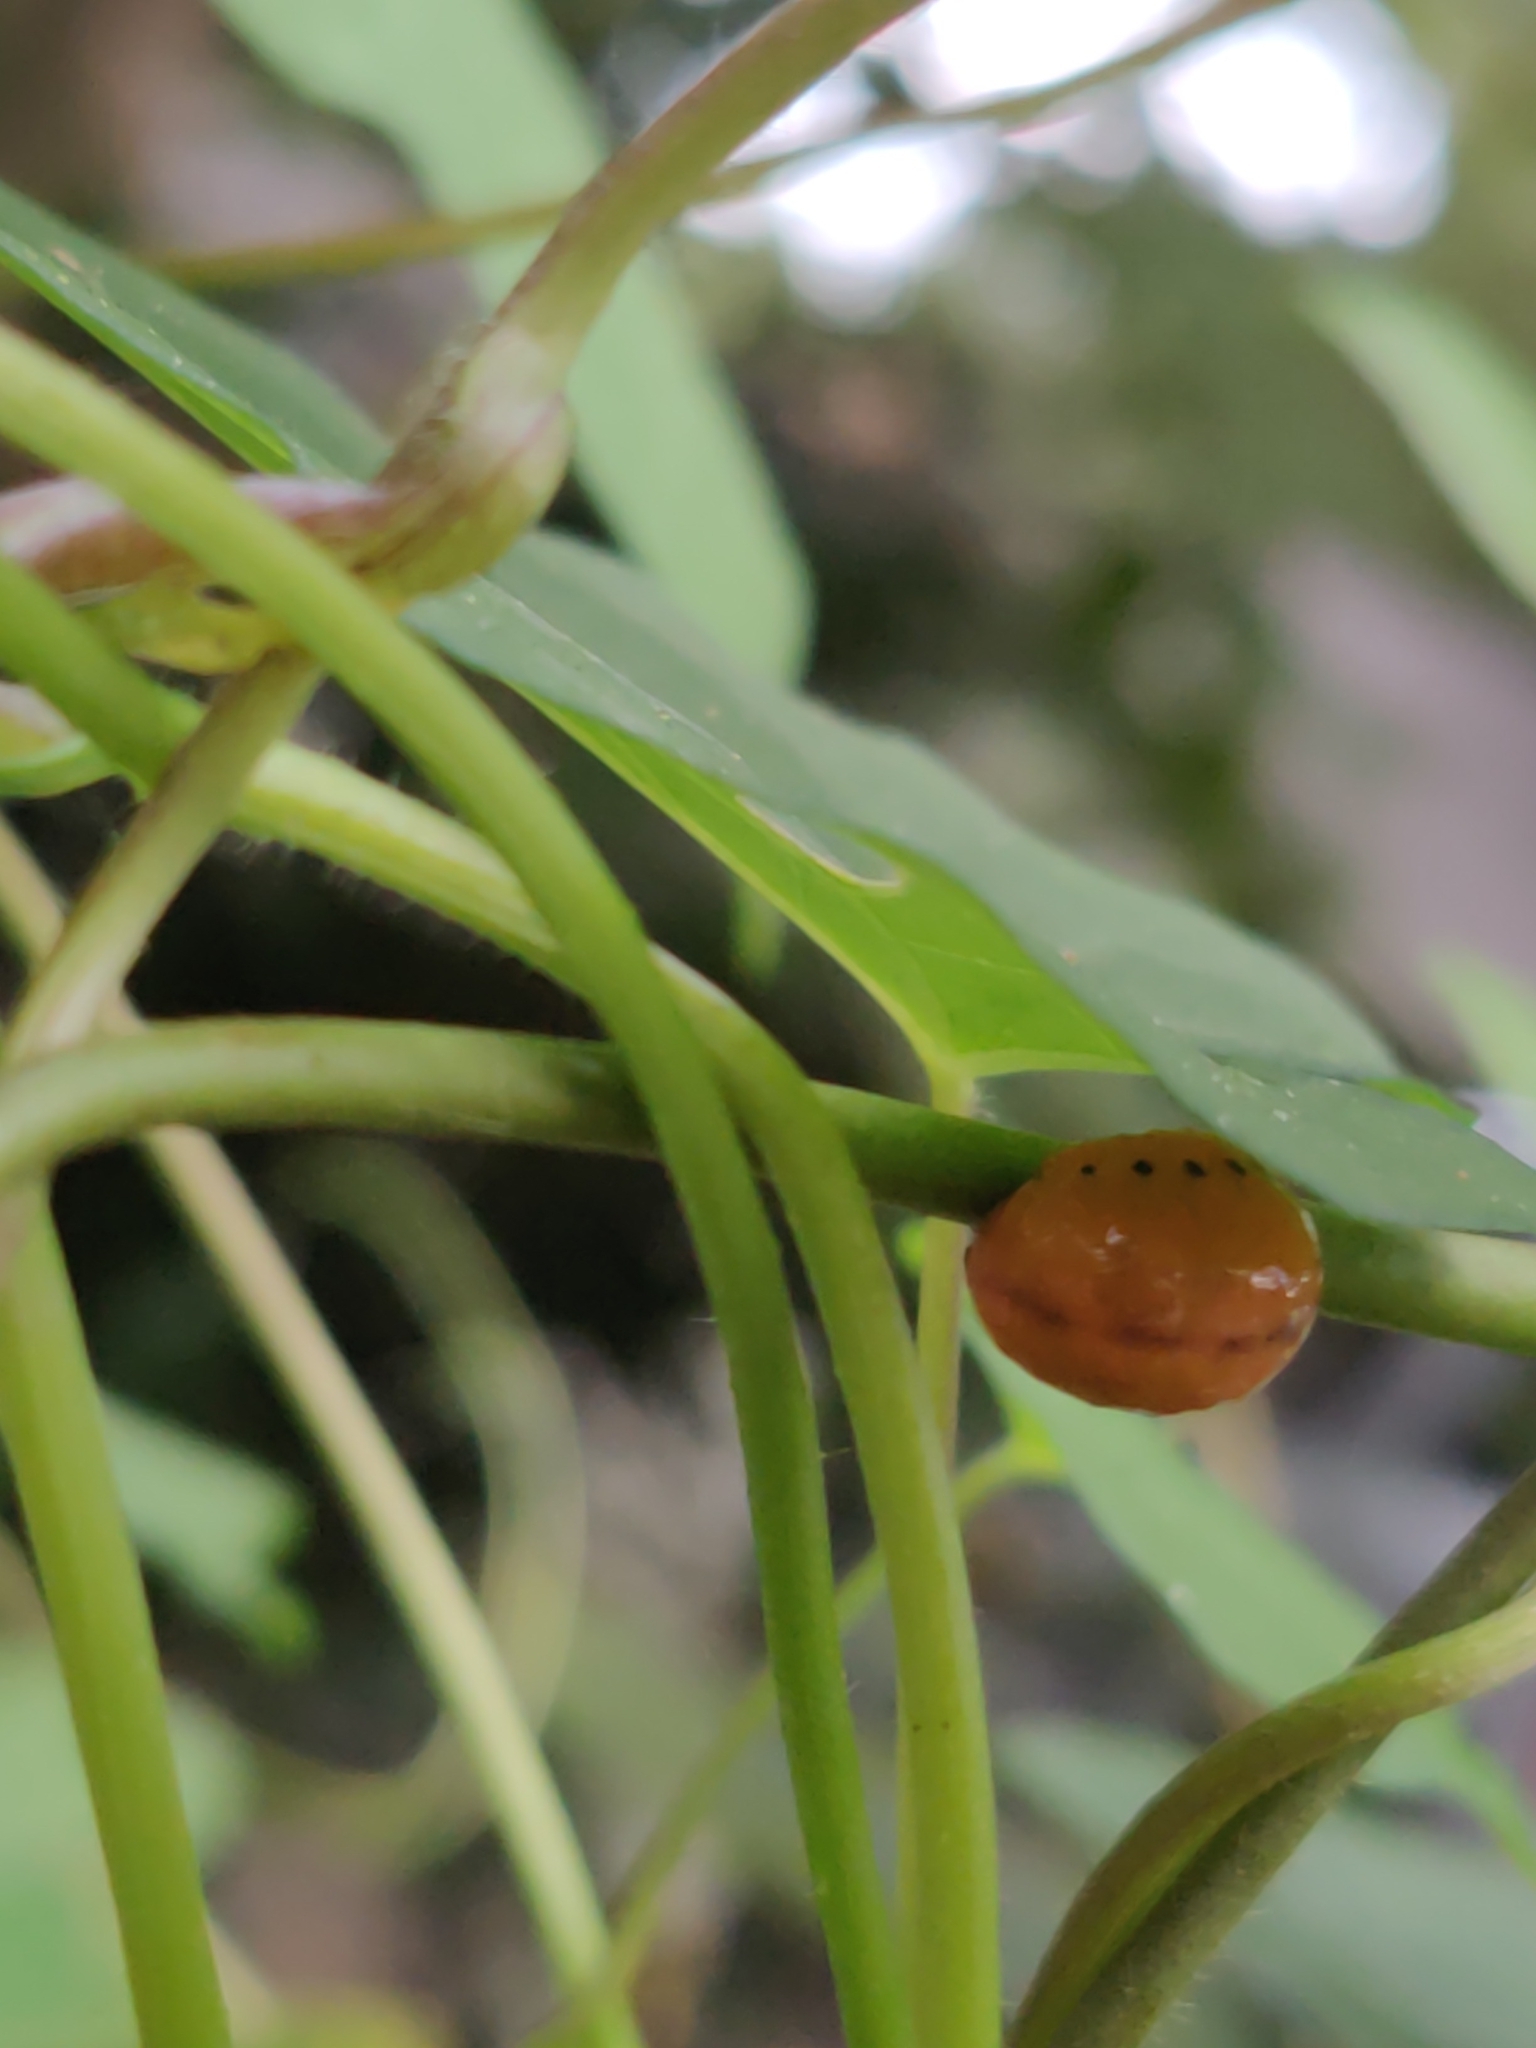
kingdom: Animalia
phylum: Arthropoda
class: Insecta
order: Coleoptera
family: Chrysomelidae
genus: Labidomera
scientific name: Labidomera clivicollis
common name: Swamp milkweed leaf beetle
